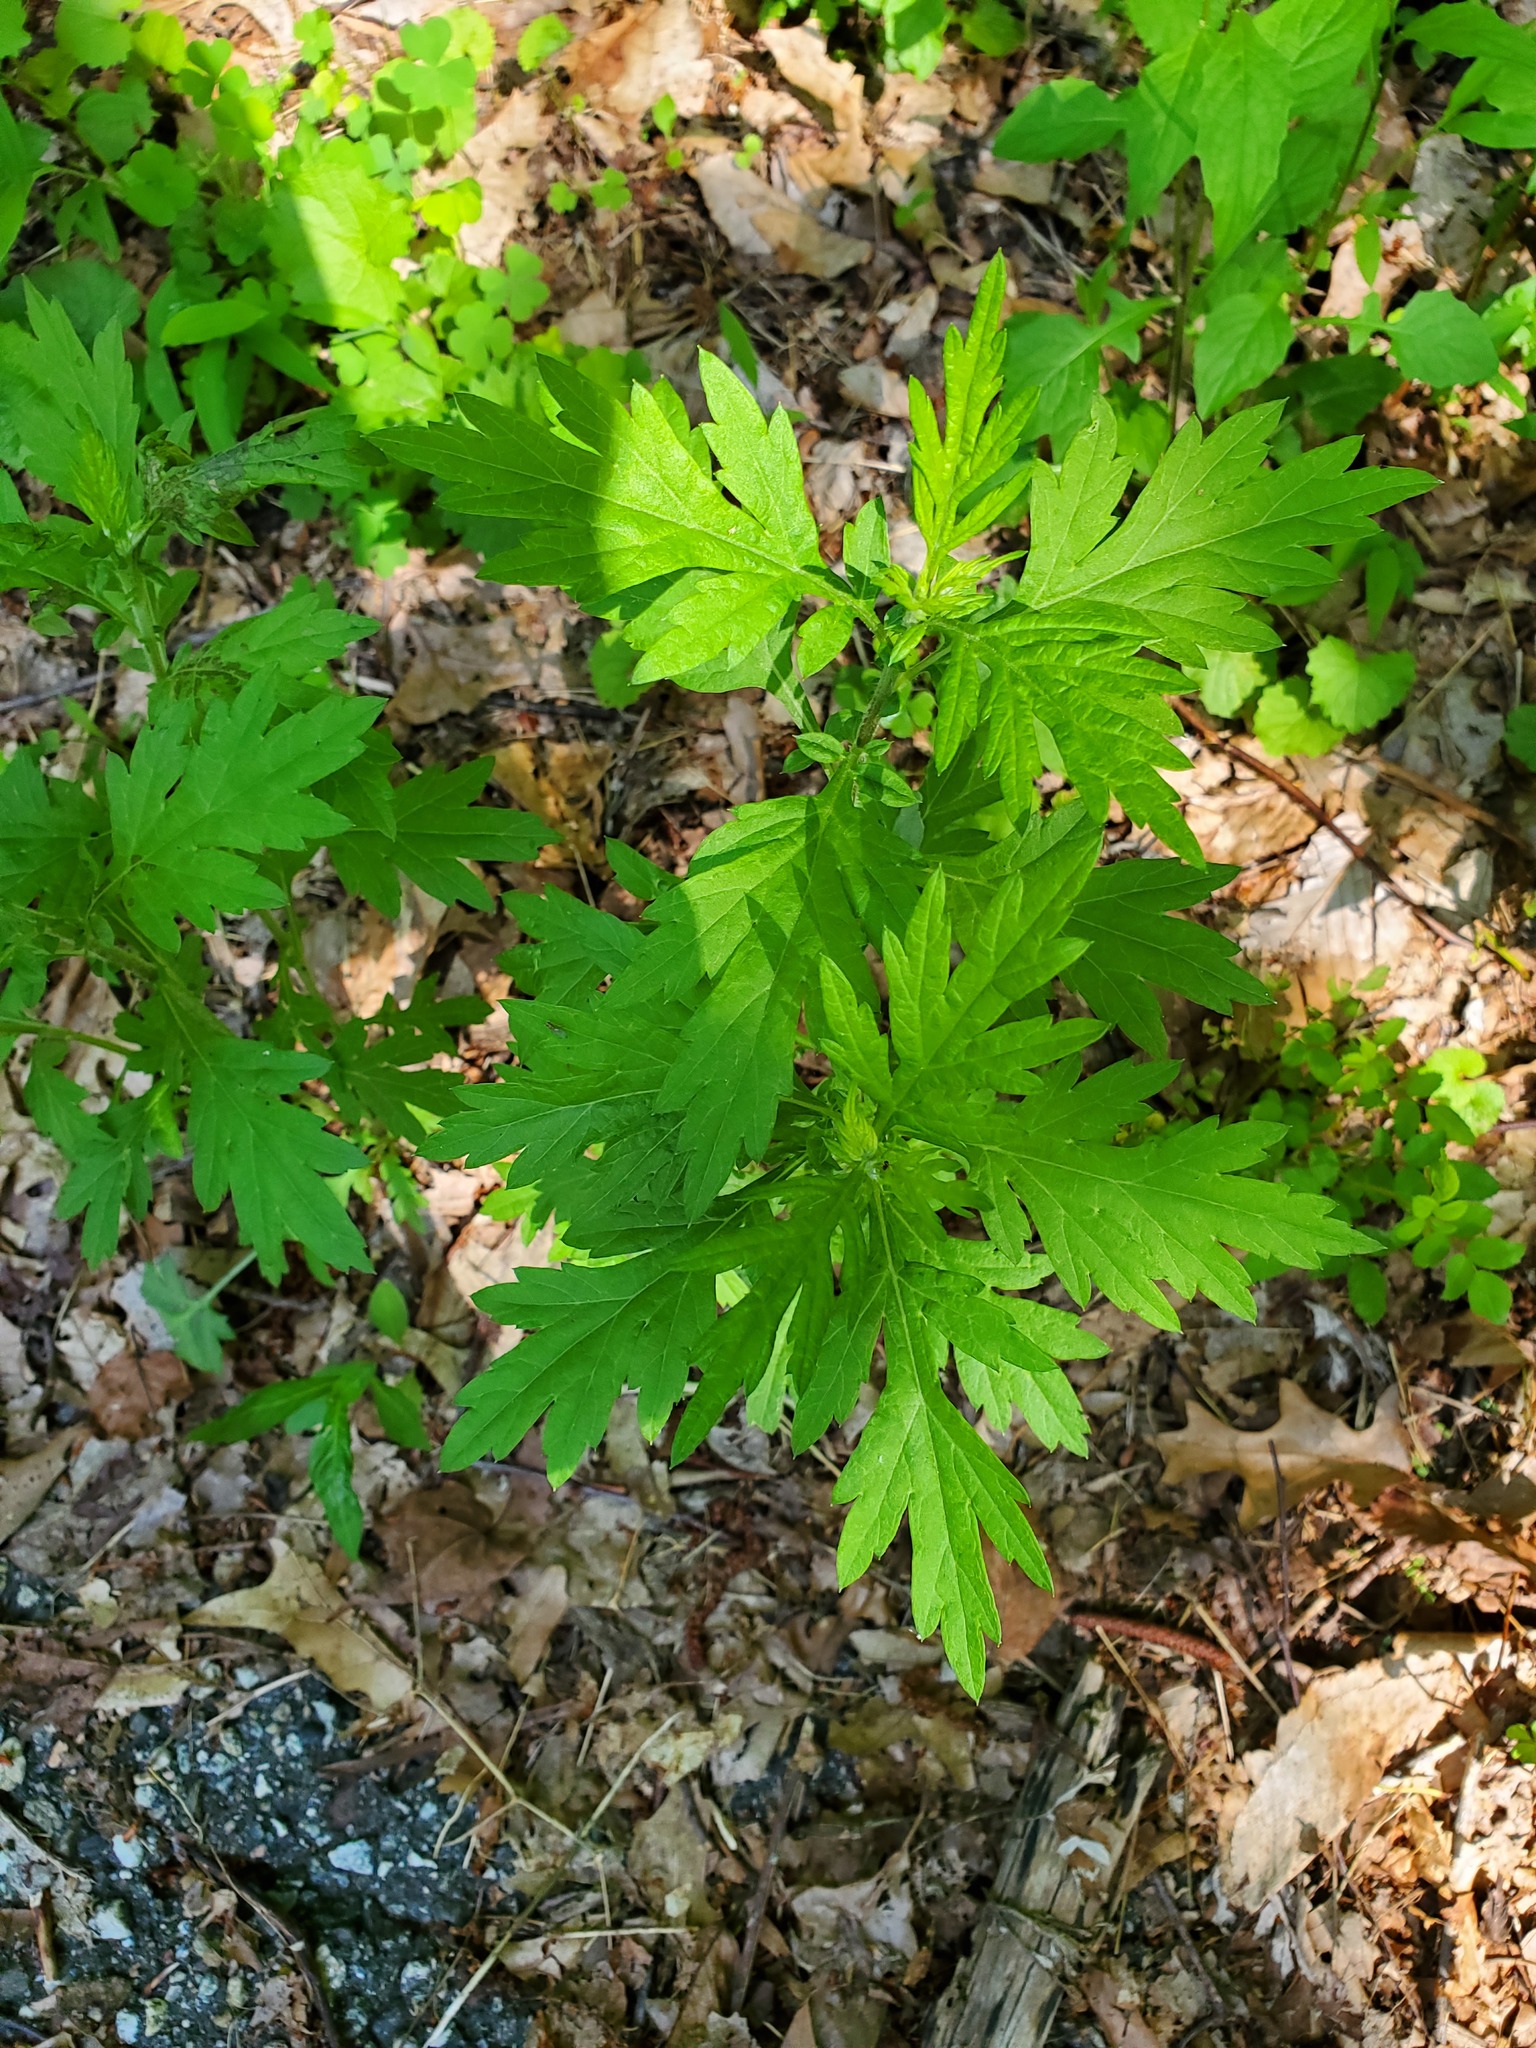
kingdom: Plantae
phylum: Tracheophyta
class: Magnoliopsida
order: Asterales
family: Asteraceae
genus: Artemisia
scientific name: Artemisia vulgaris
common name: Mugwort
